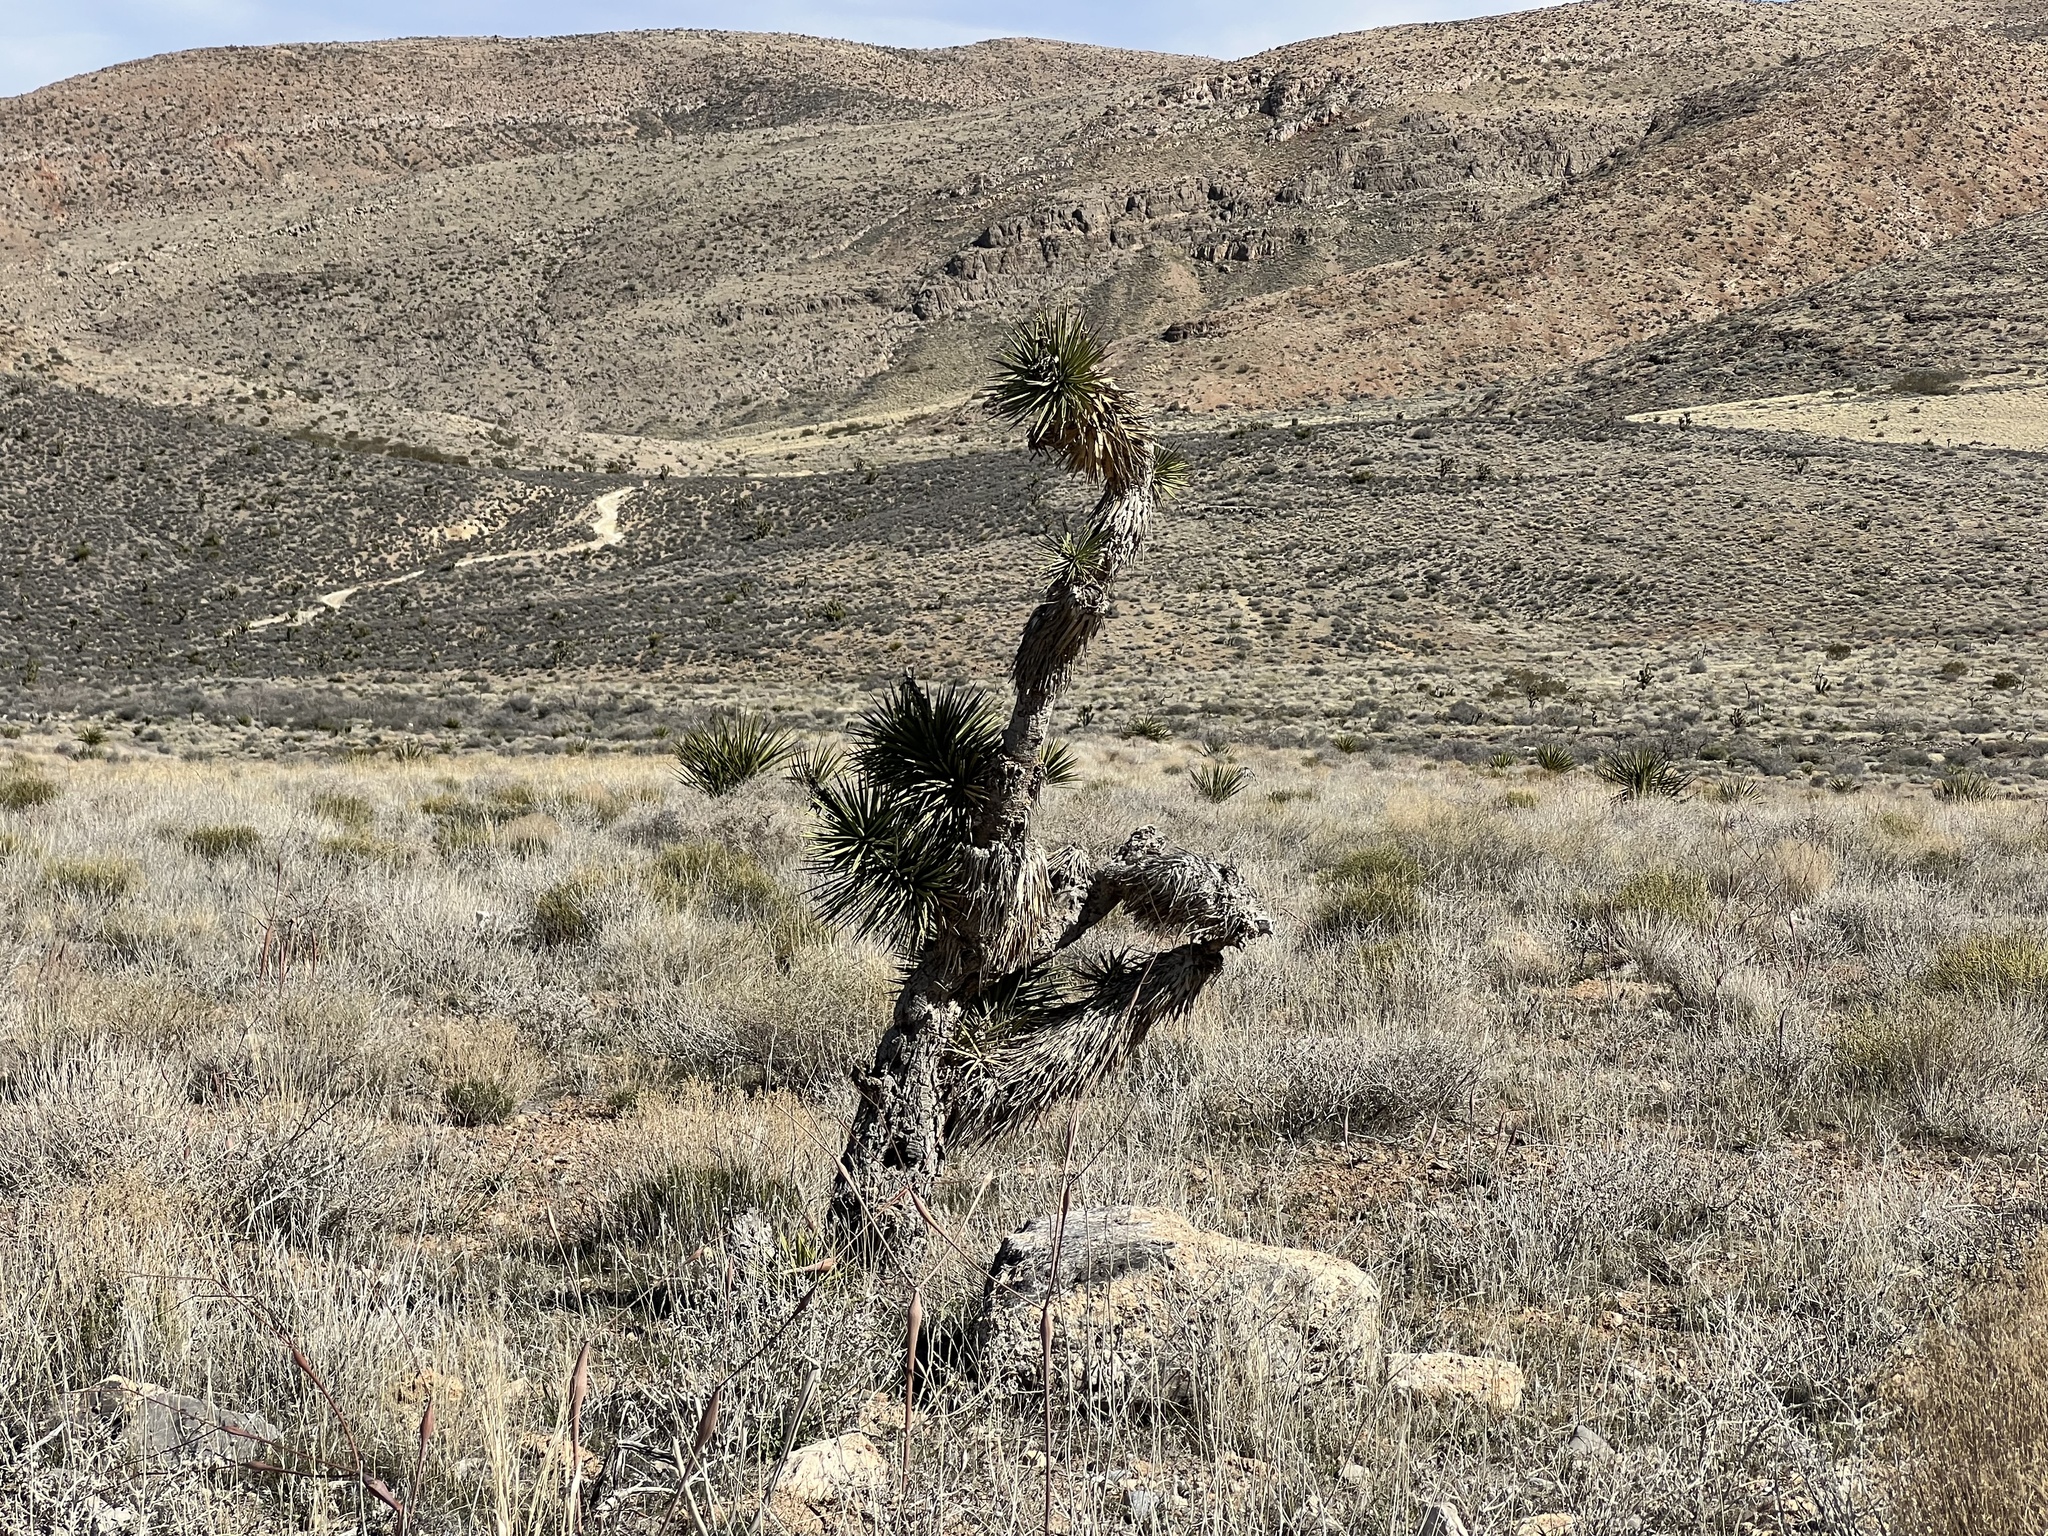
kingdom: Plantae
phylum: Tracheophyta
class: Liliopsida
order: Asparagales
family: Asparagaceae
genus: Yucca
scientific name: Yucca brevifolia
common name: Joshua tree
